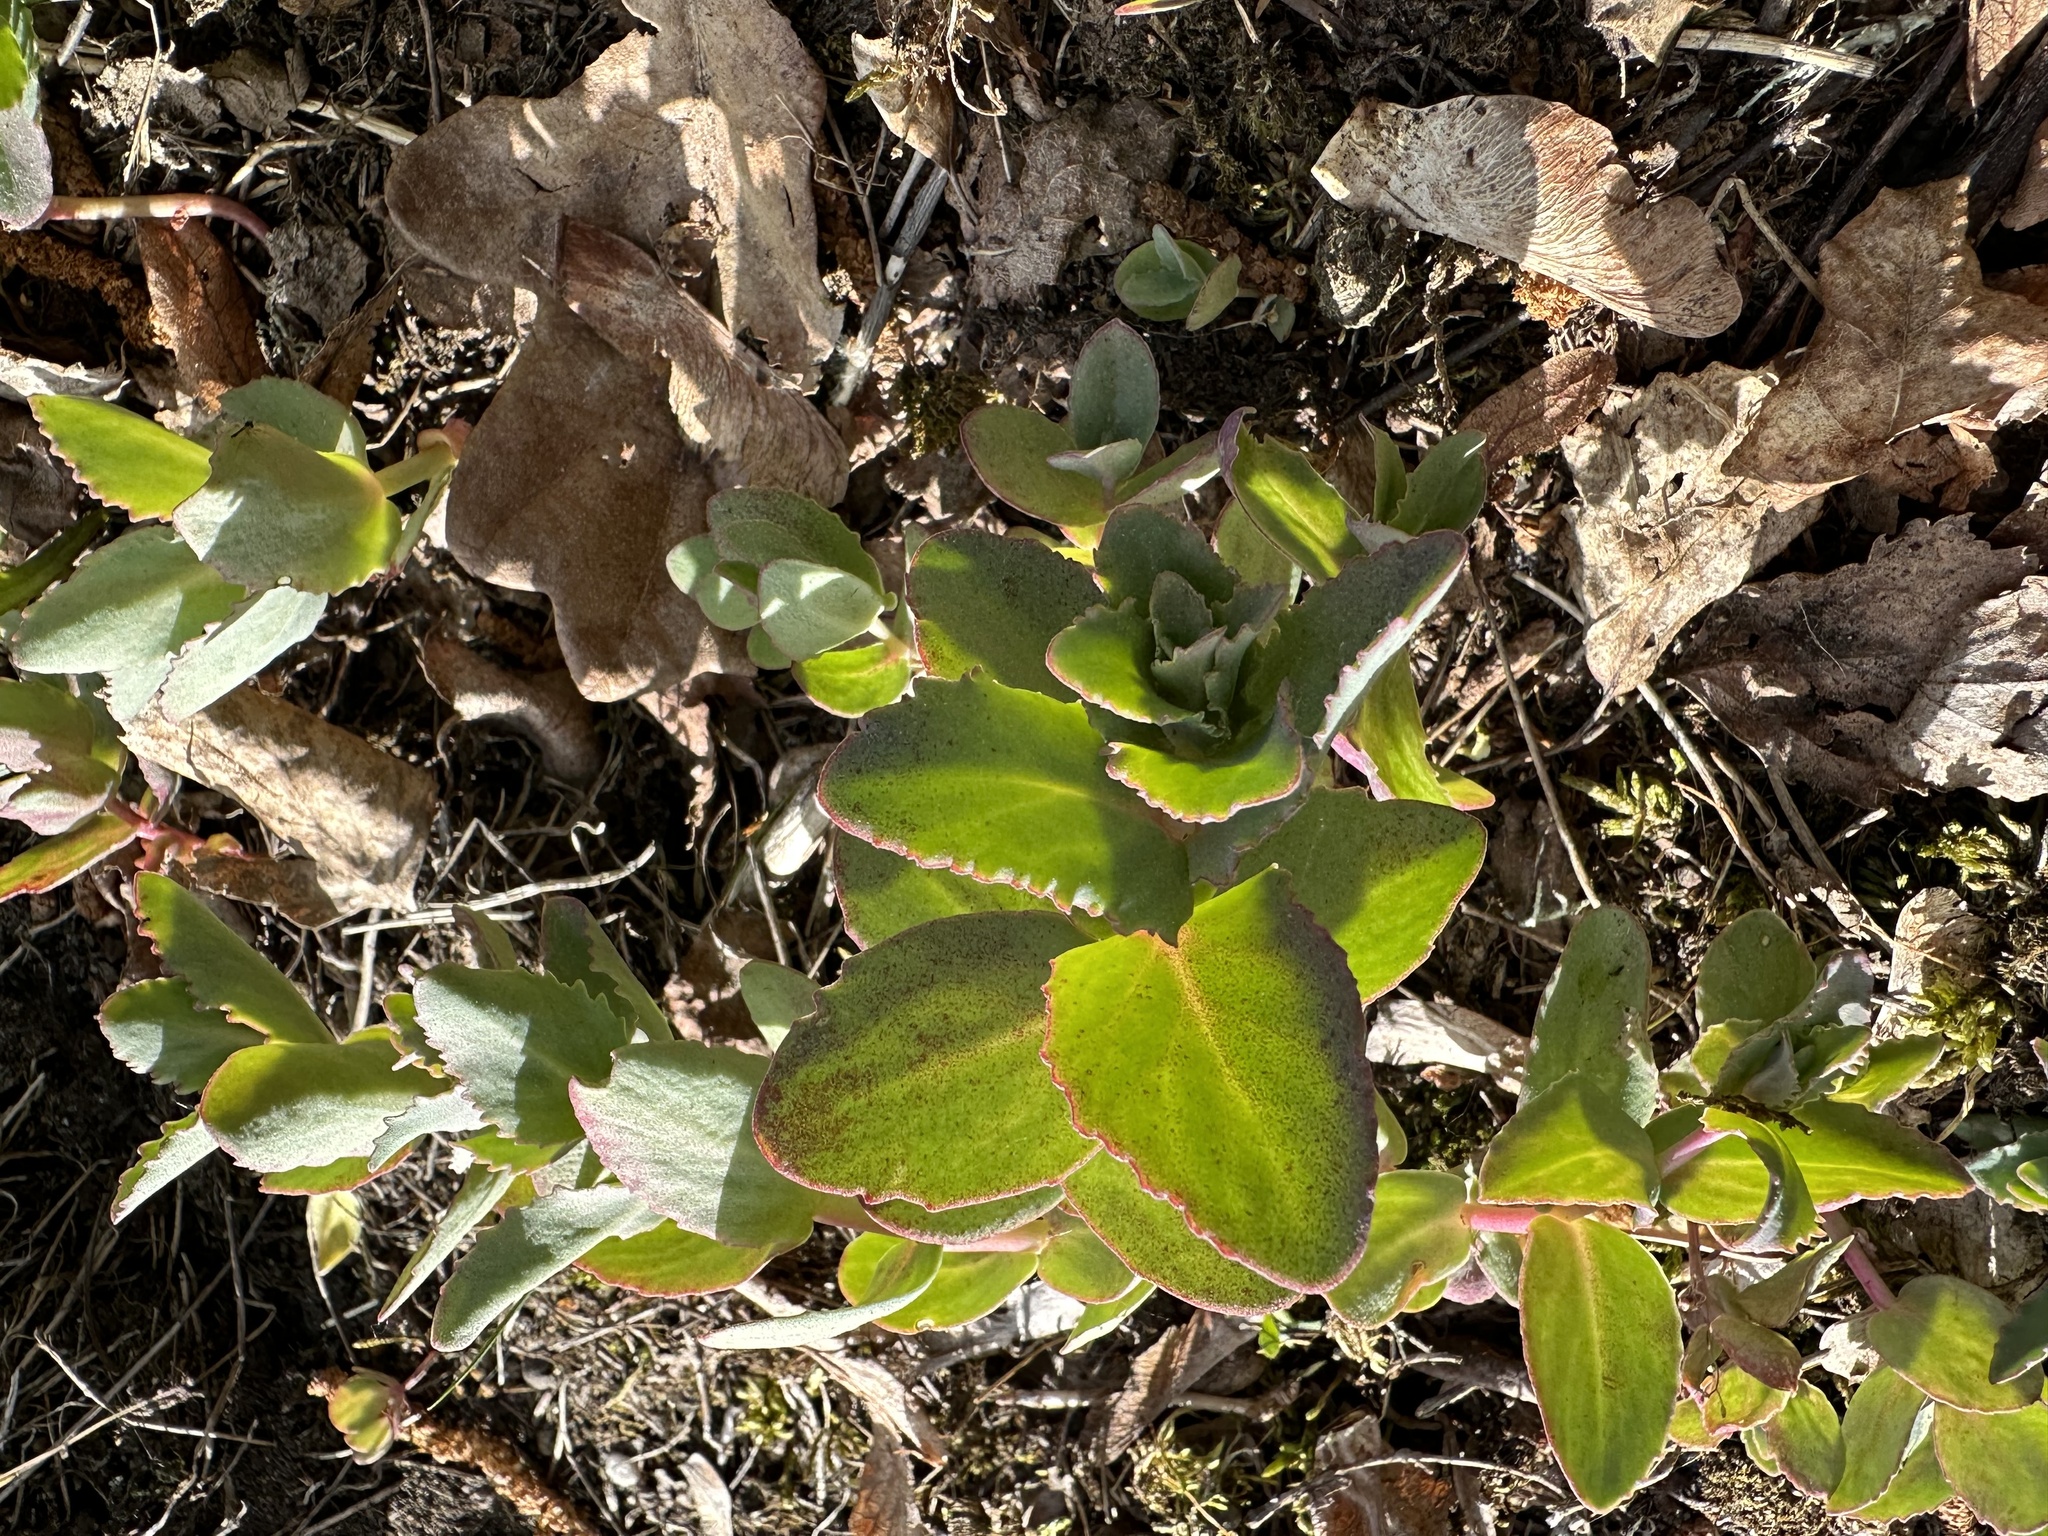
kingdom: Plantae
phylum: Tracheophyta
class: Magnoliopsida
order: Saxifragales
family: Crassulaceae
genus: Hylotelephium
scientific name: Hylotelephium maximum
